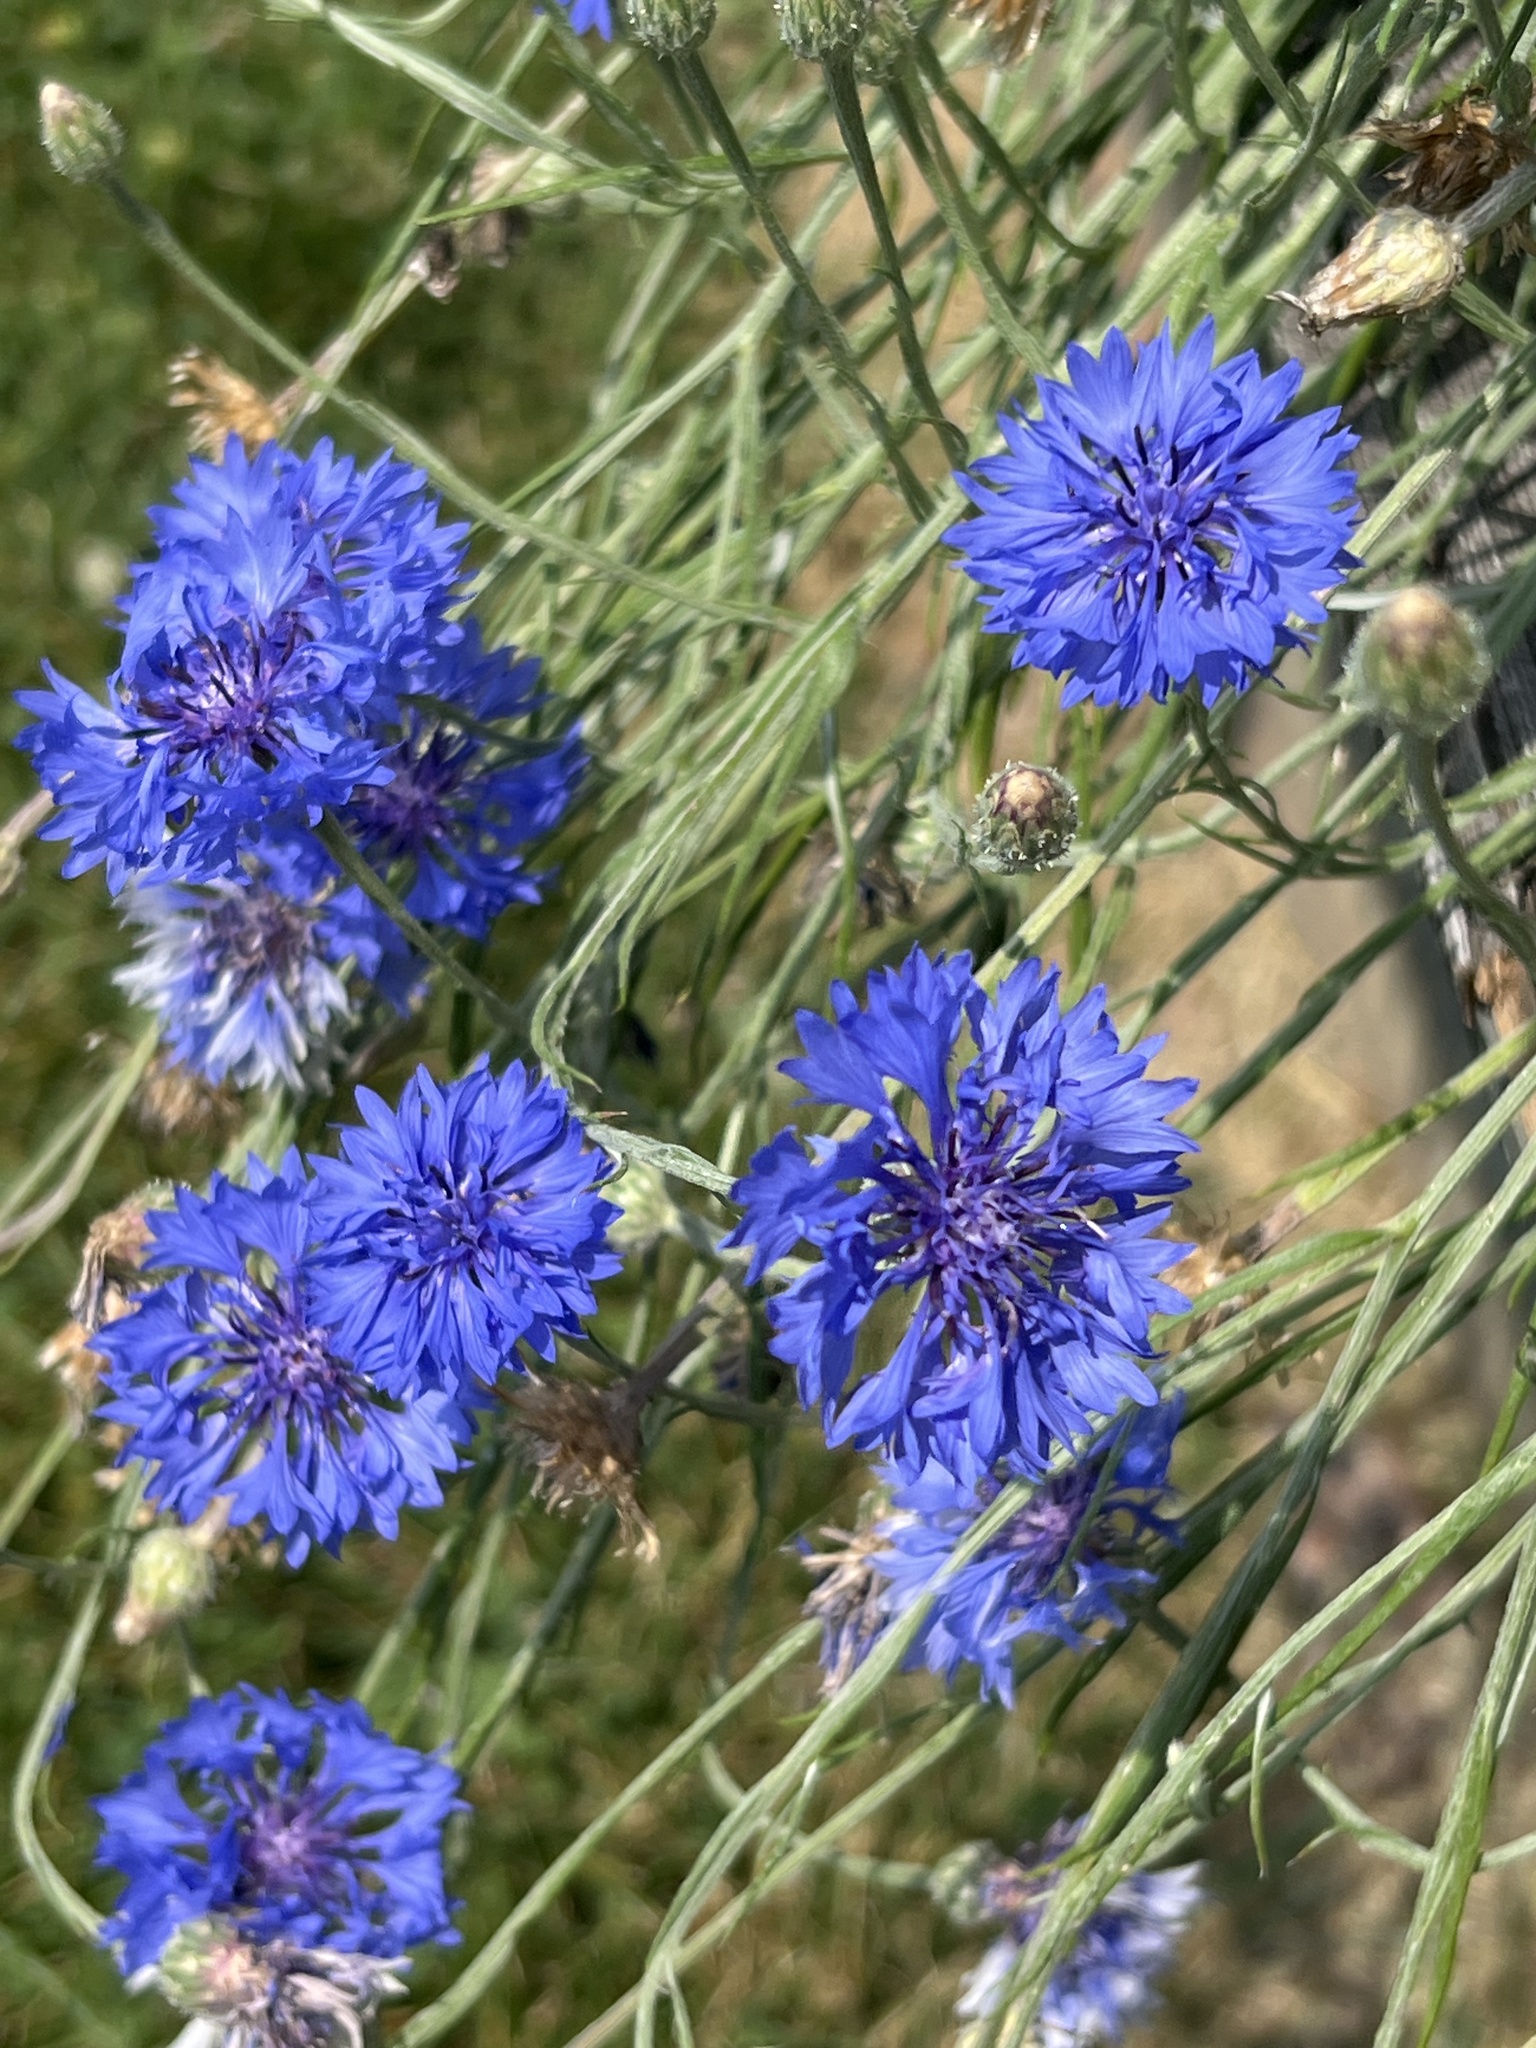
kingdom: Plantae
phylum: Tracheophyta
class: Magnoliopsida
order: Asterales
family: Asteraceae
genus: Centaurea
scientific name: Centaurea cyanus
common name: Cornflower
